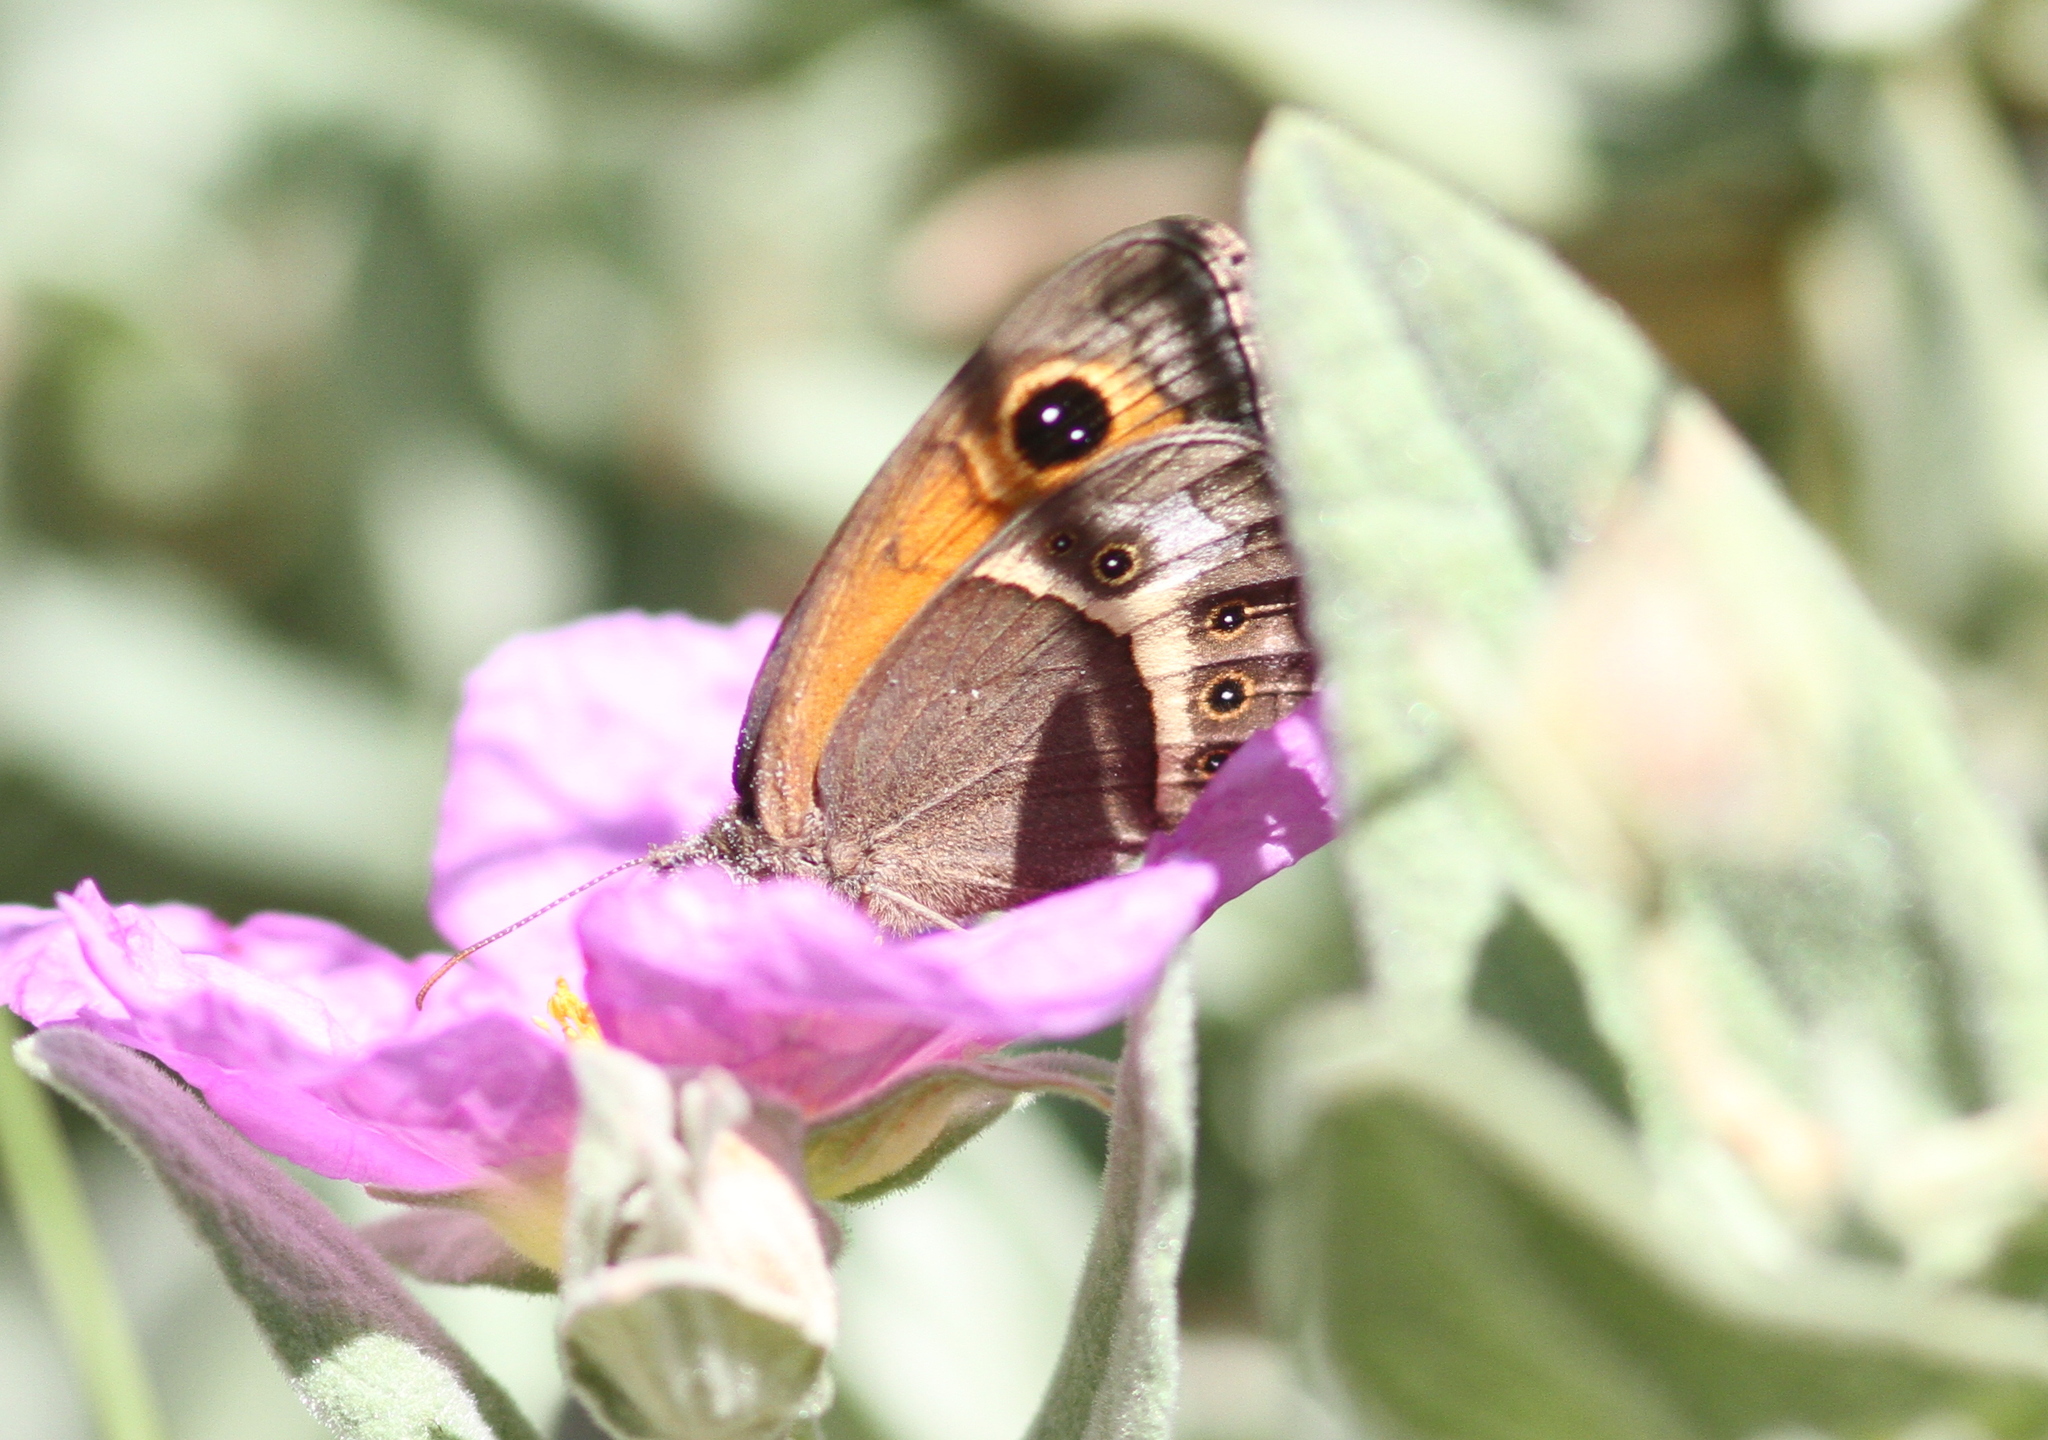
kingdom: Animalia
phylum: Arthropoda
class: Insecta
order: Lepidoptera
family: Nymphalidae
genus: Pyronia
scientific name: Pyronia bathseba
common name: Spanish gatekeeper
